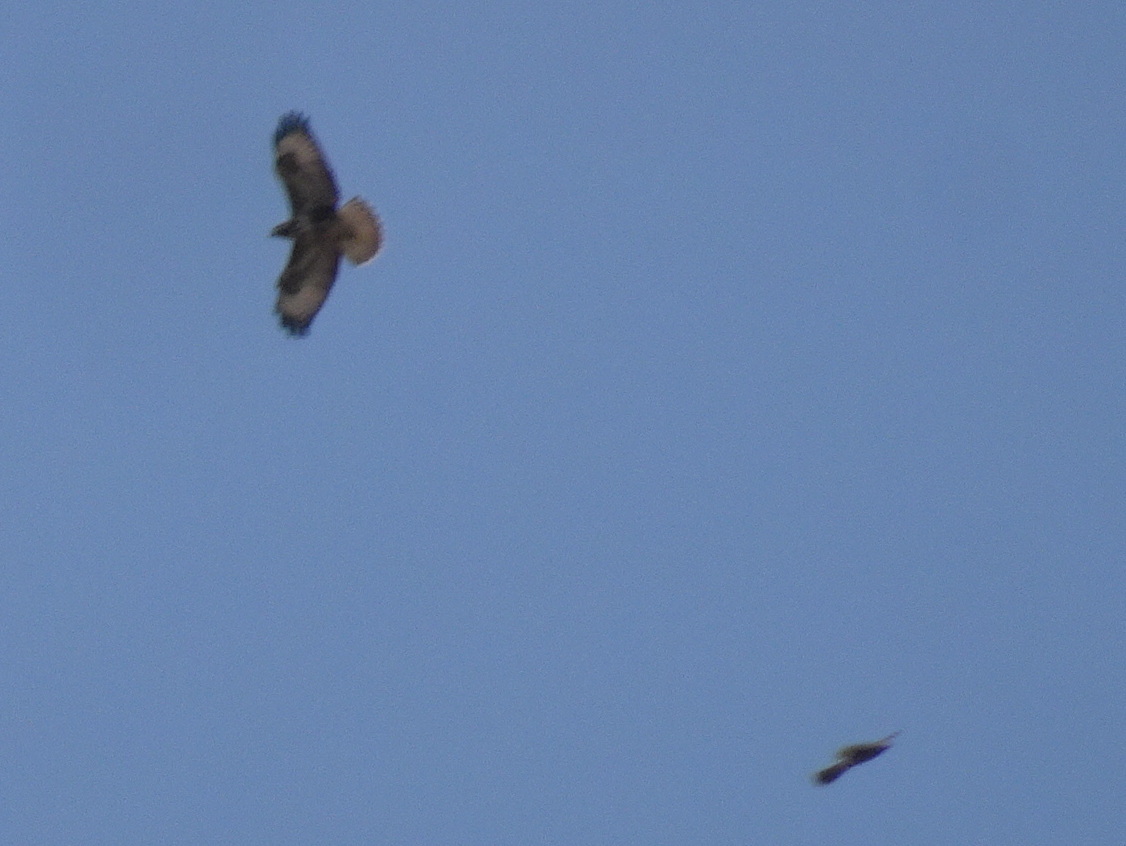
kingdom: Animalia
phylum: Chordata
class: Aves
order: Accipitriformes
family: Accipitridae
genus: Accipiter
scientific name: Accipiter nisus
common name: Eurasian sparrowhawk
